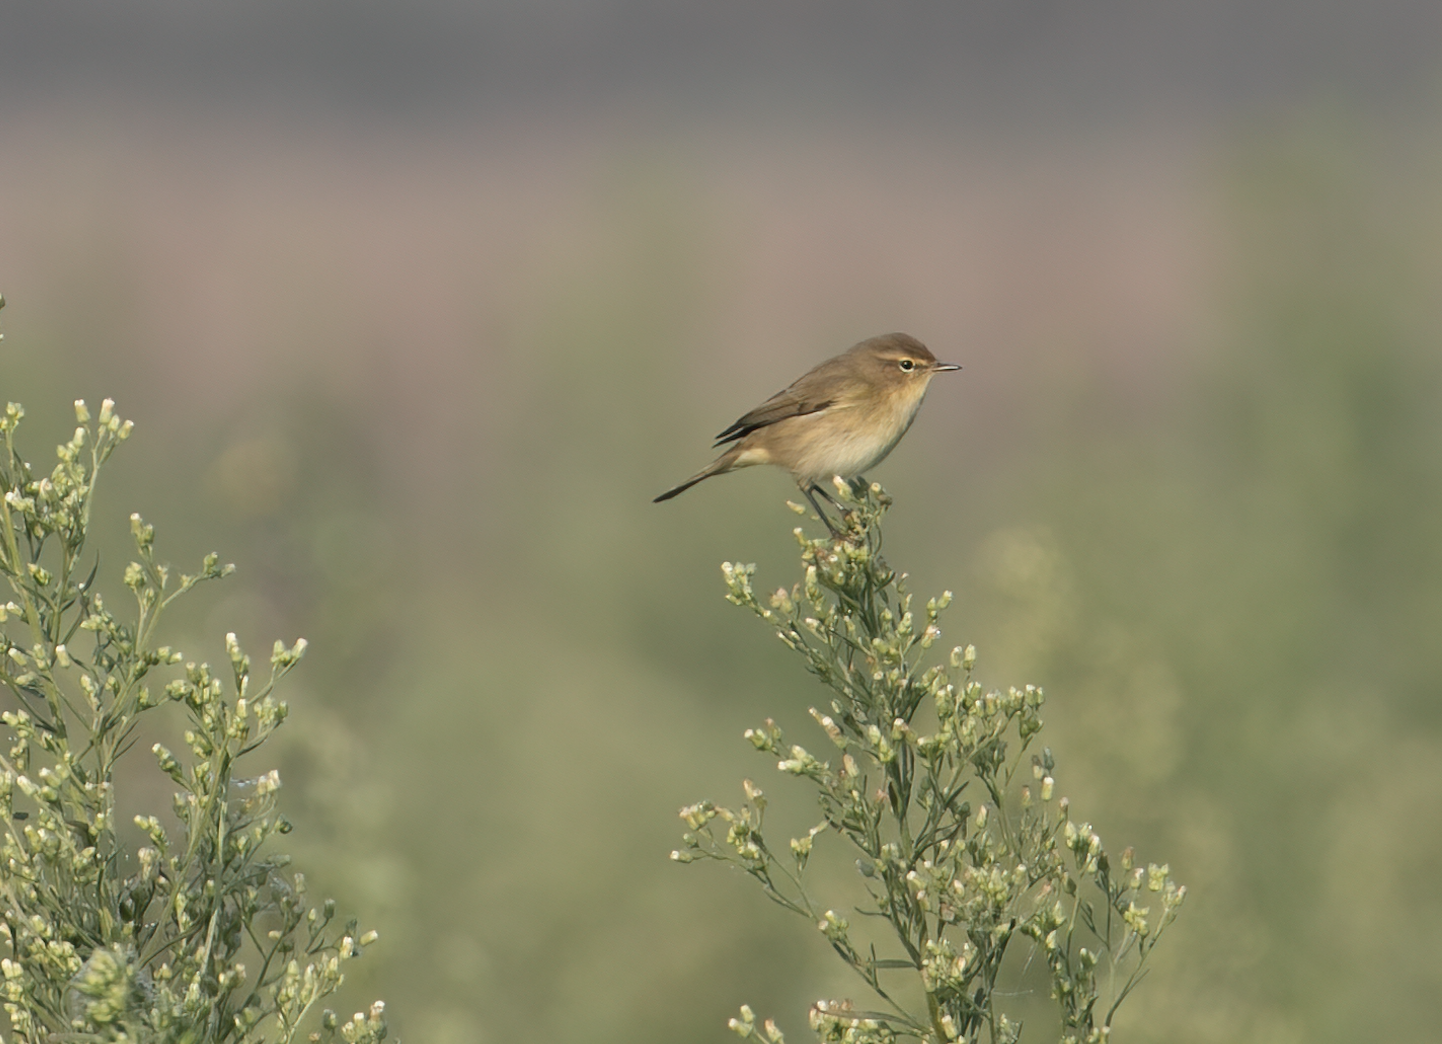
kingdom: Animalia
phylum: Chordata
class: Aves
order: Passeriformes
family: Phylloscopidae
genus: Phylloscopus
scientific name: Phylloscopus collybita
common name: Common chiffchaff
